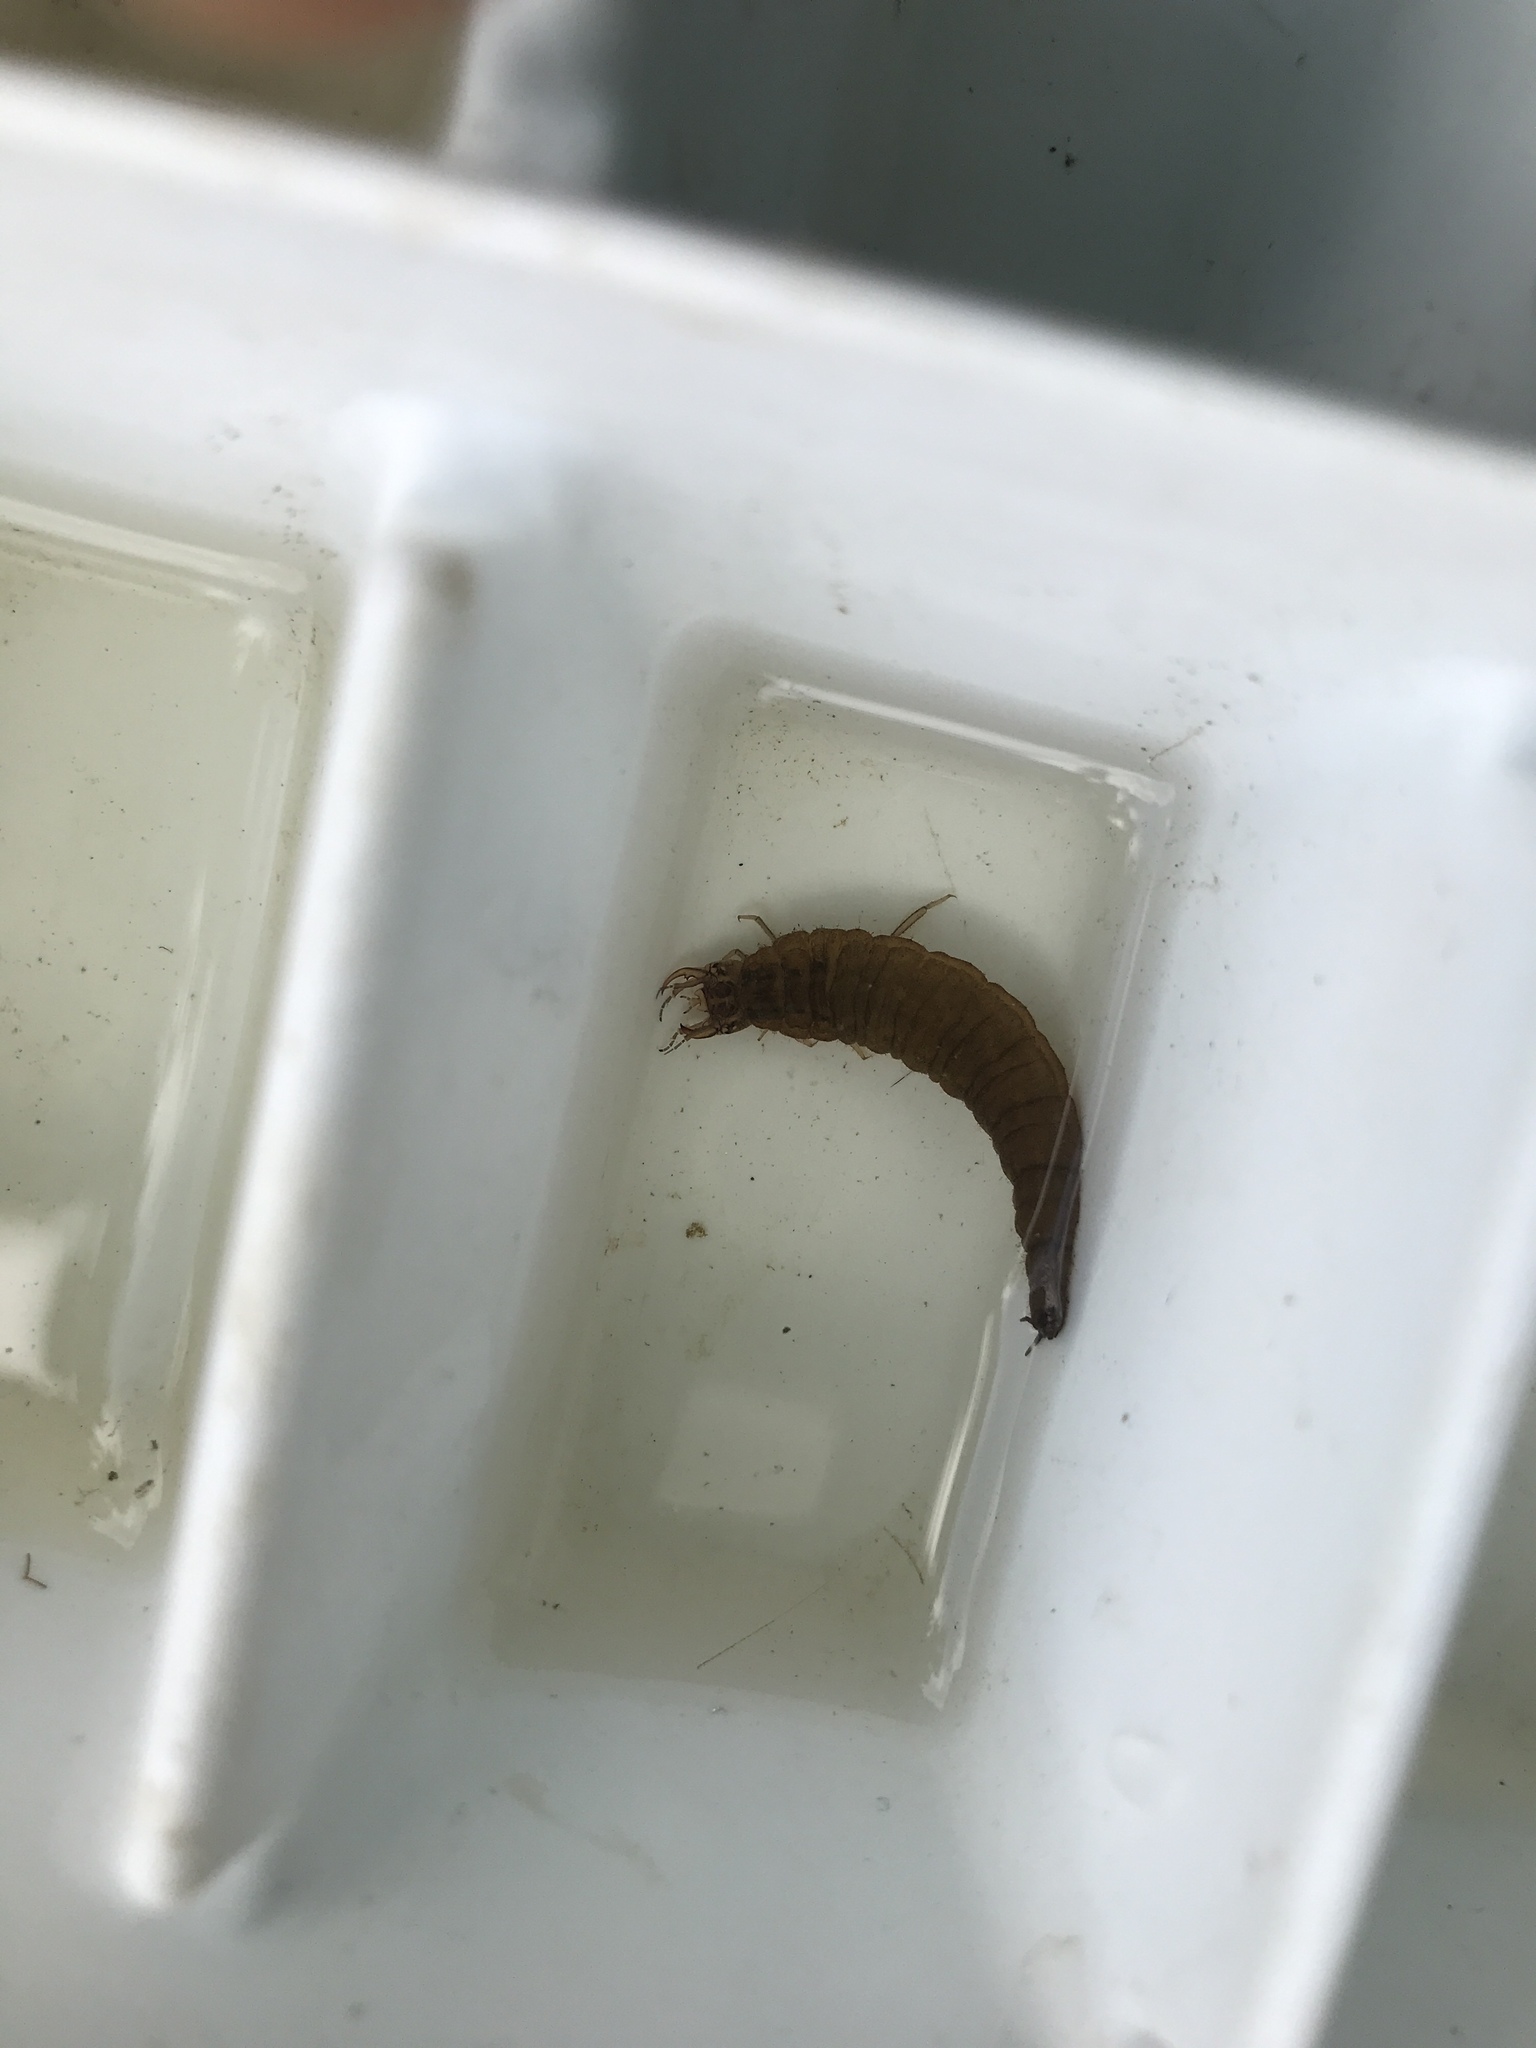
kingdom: Animalia
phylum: Arthropoda
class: Insecta
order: Coleoptera
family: Hydrophilidae
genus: Hydrophilus
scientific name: Hydrophilus triangularis
